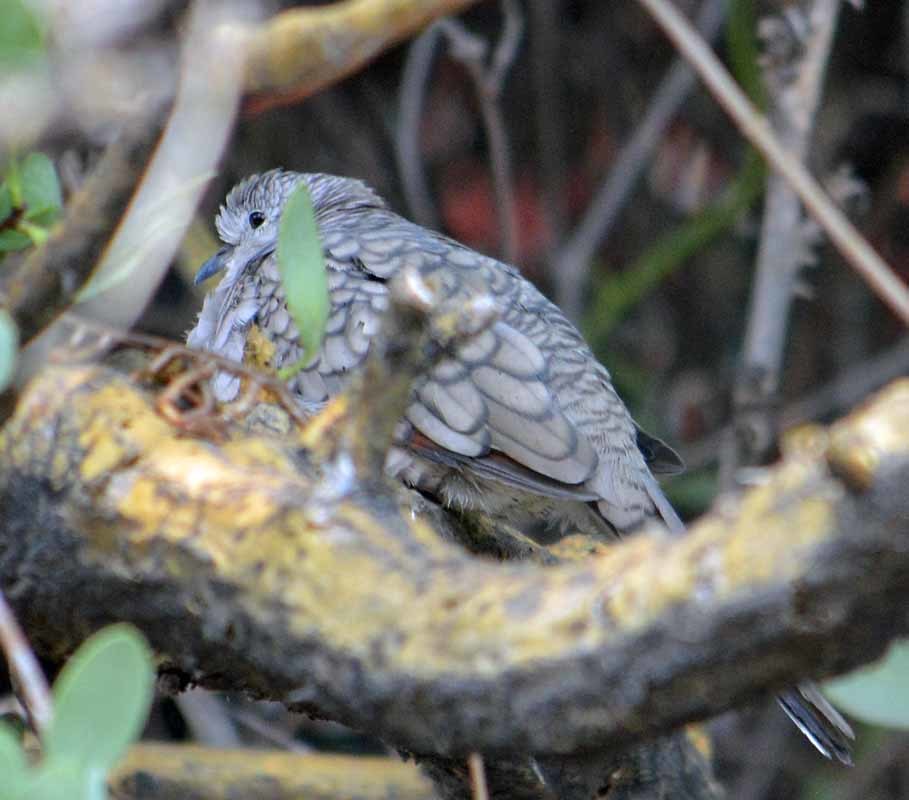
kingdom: Animalia
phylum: Chordata
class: Aves
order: Columbiformes
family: Columbidae
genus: Columbina
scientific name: Columbina inca
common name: Inca dove
